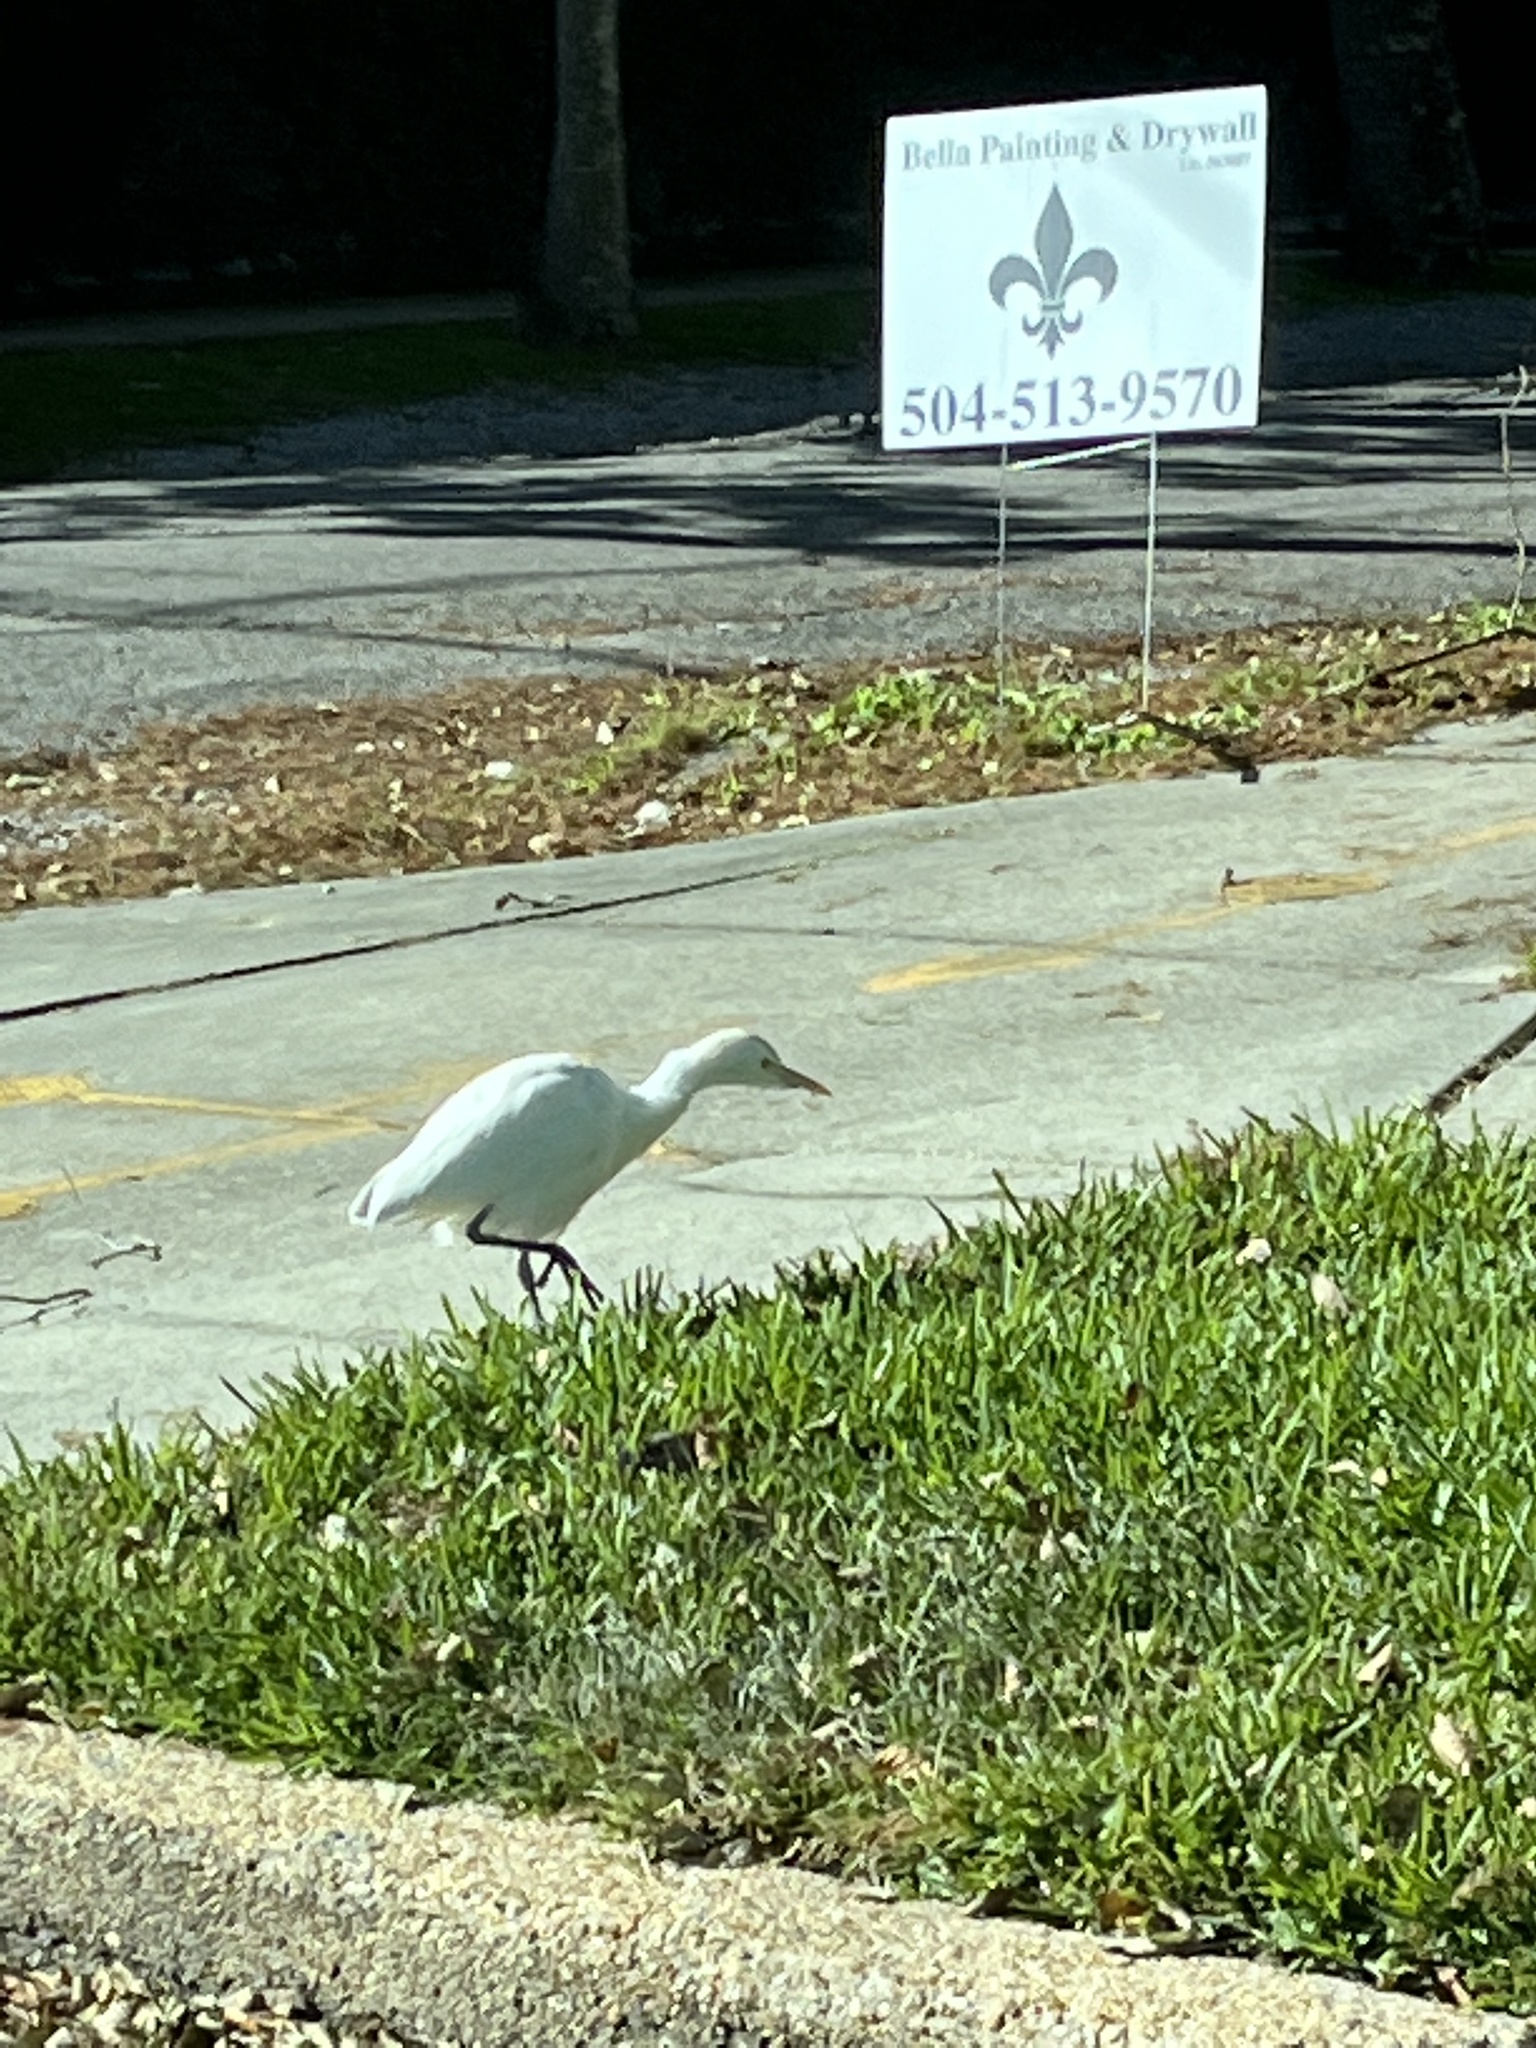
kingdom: Animalia
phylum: Chordata
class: Aves
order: Pelecaniformes
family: Ardeidae
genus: Bubulcus
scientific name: Bubulcus ibis
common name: Cattle egret
